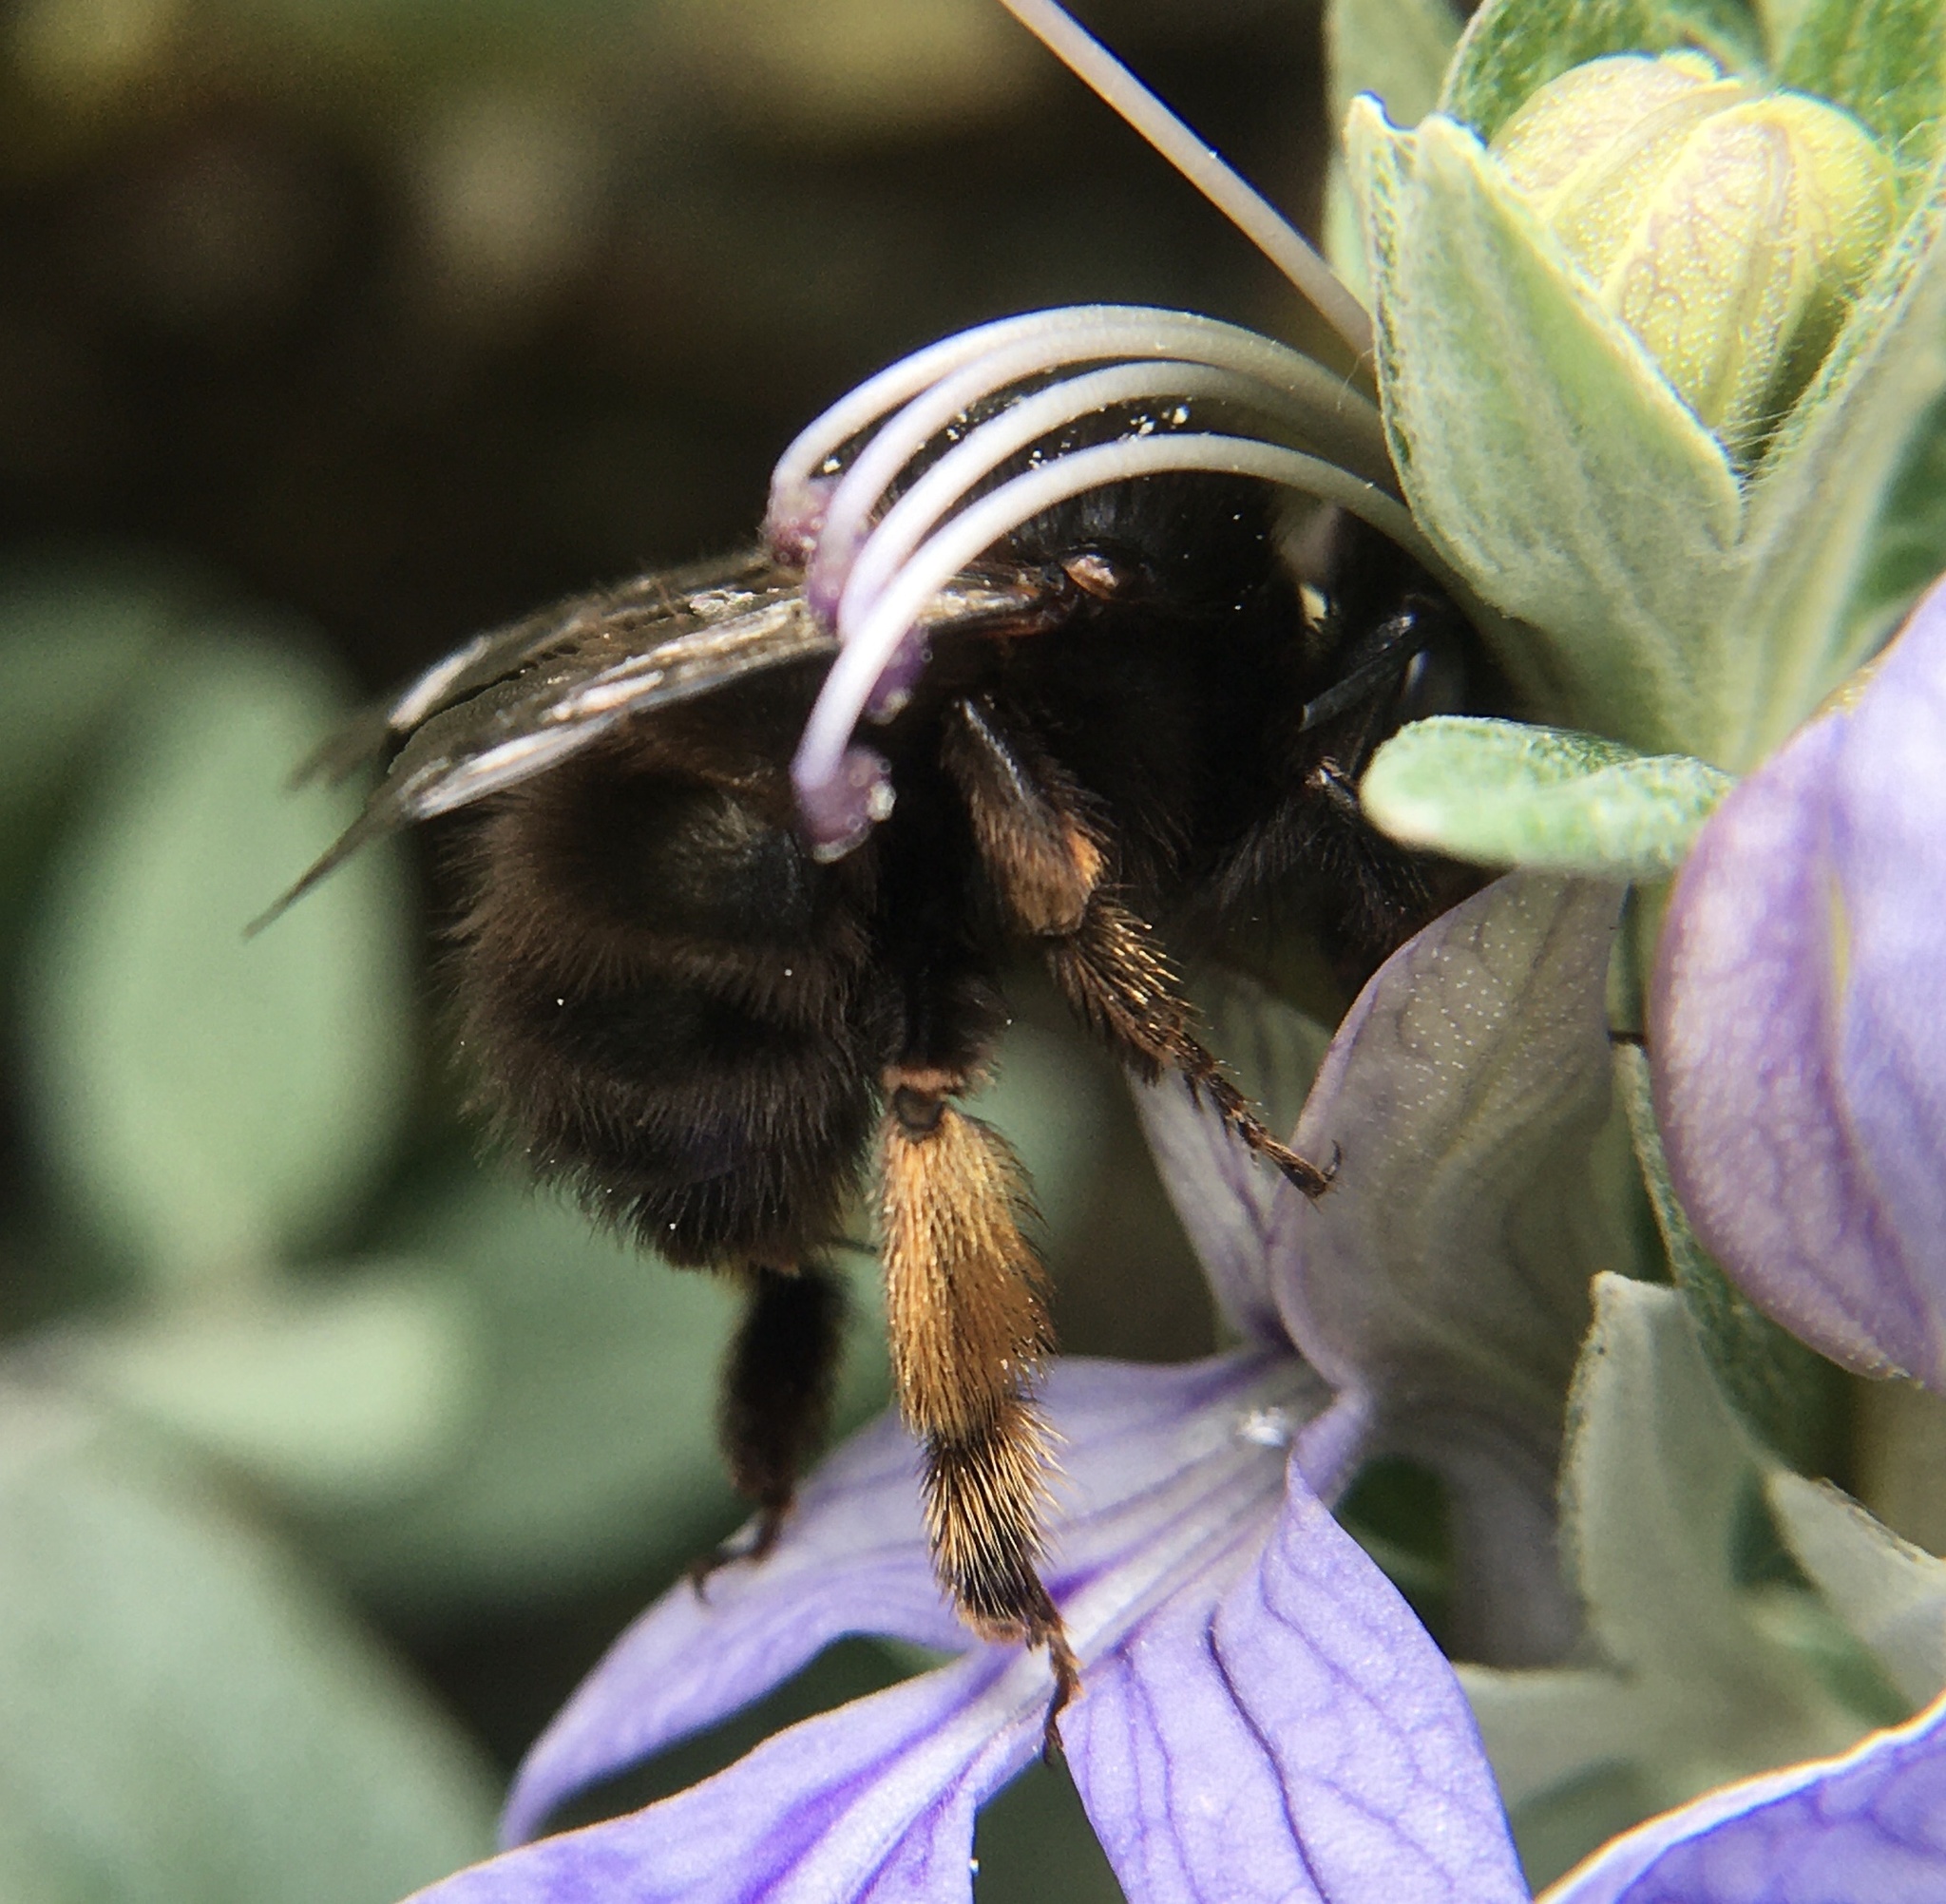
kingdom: Animalia
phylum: Arthropoda
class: Insecta
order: Hymenoptera
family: Apidae
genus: Anthophora
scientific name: Anthophora plumipes
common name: Hairy-footed flower bee
